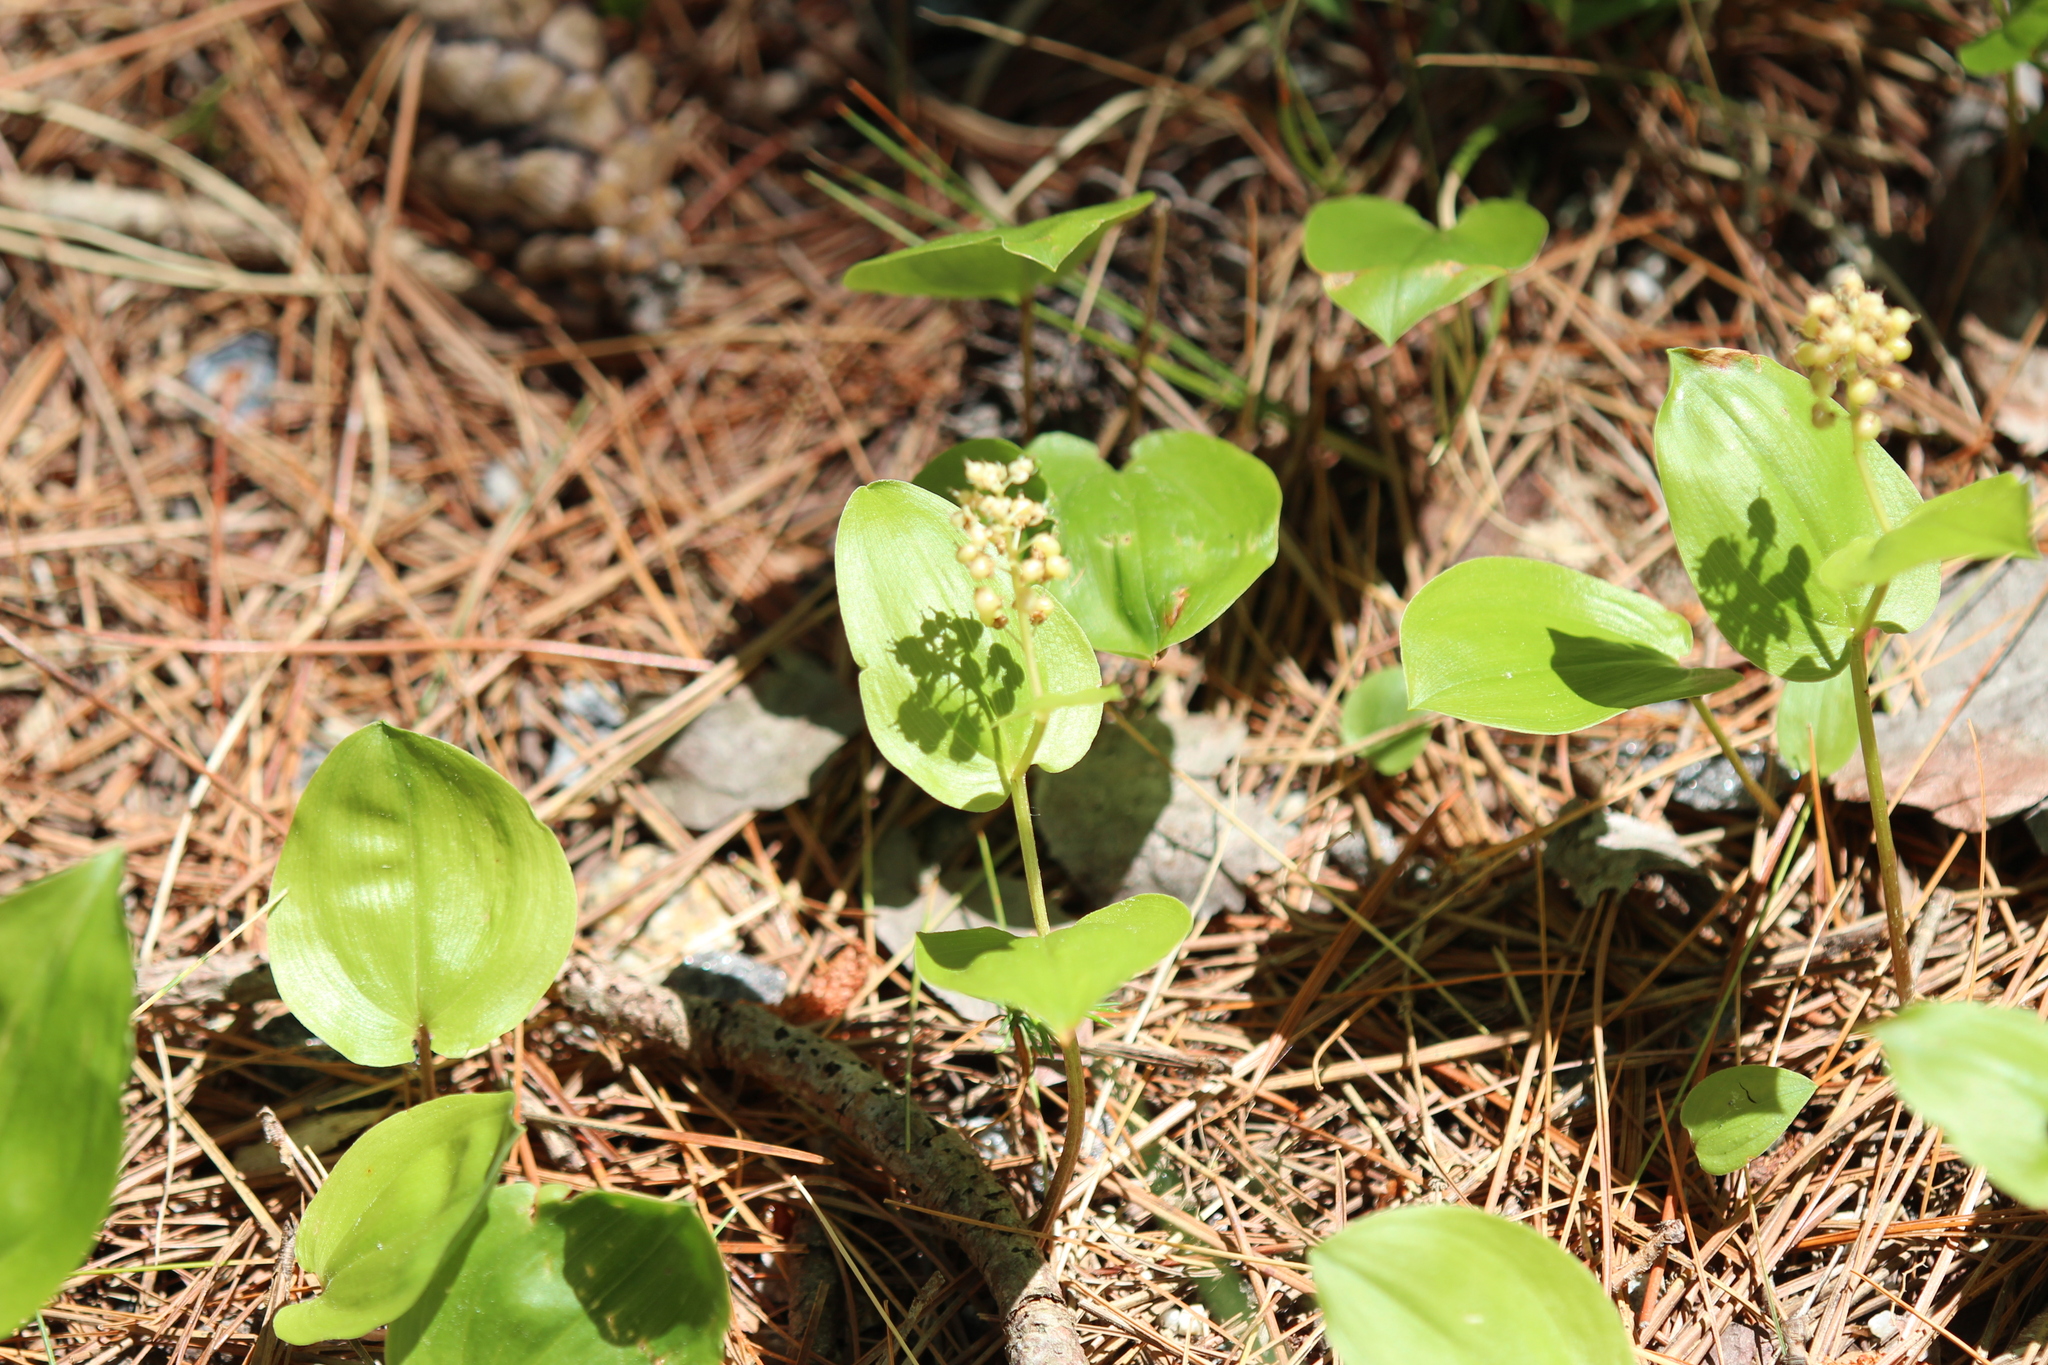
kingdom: Plantae
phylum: Tracheophyta
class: Liliopsida
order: Asparagales
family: Asparagaceae
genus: Maianthemum
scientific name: Maianthemum canadense
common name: False lily-of-the-valley
